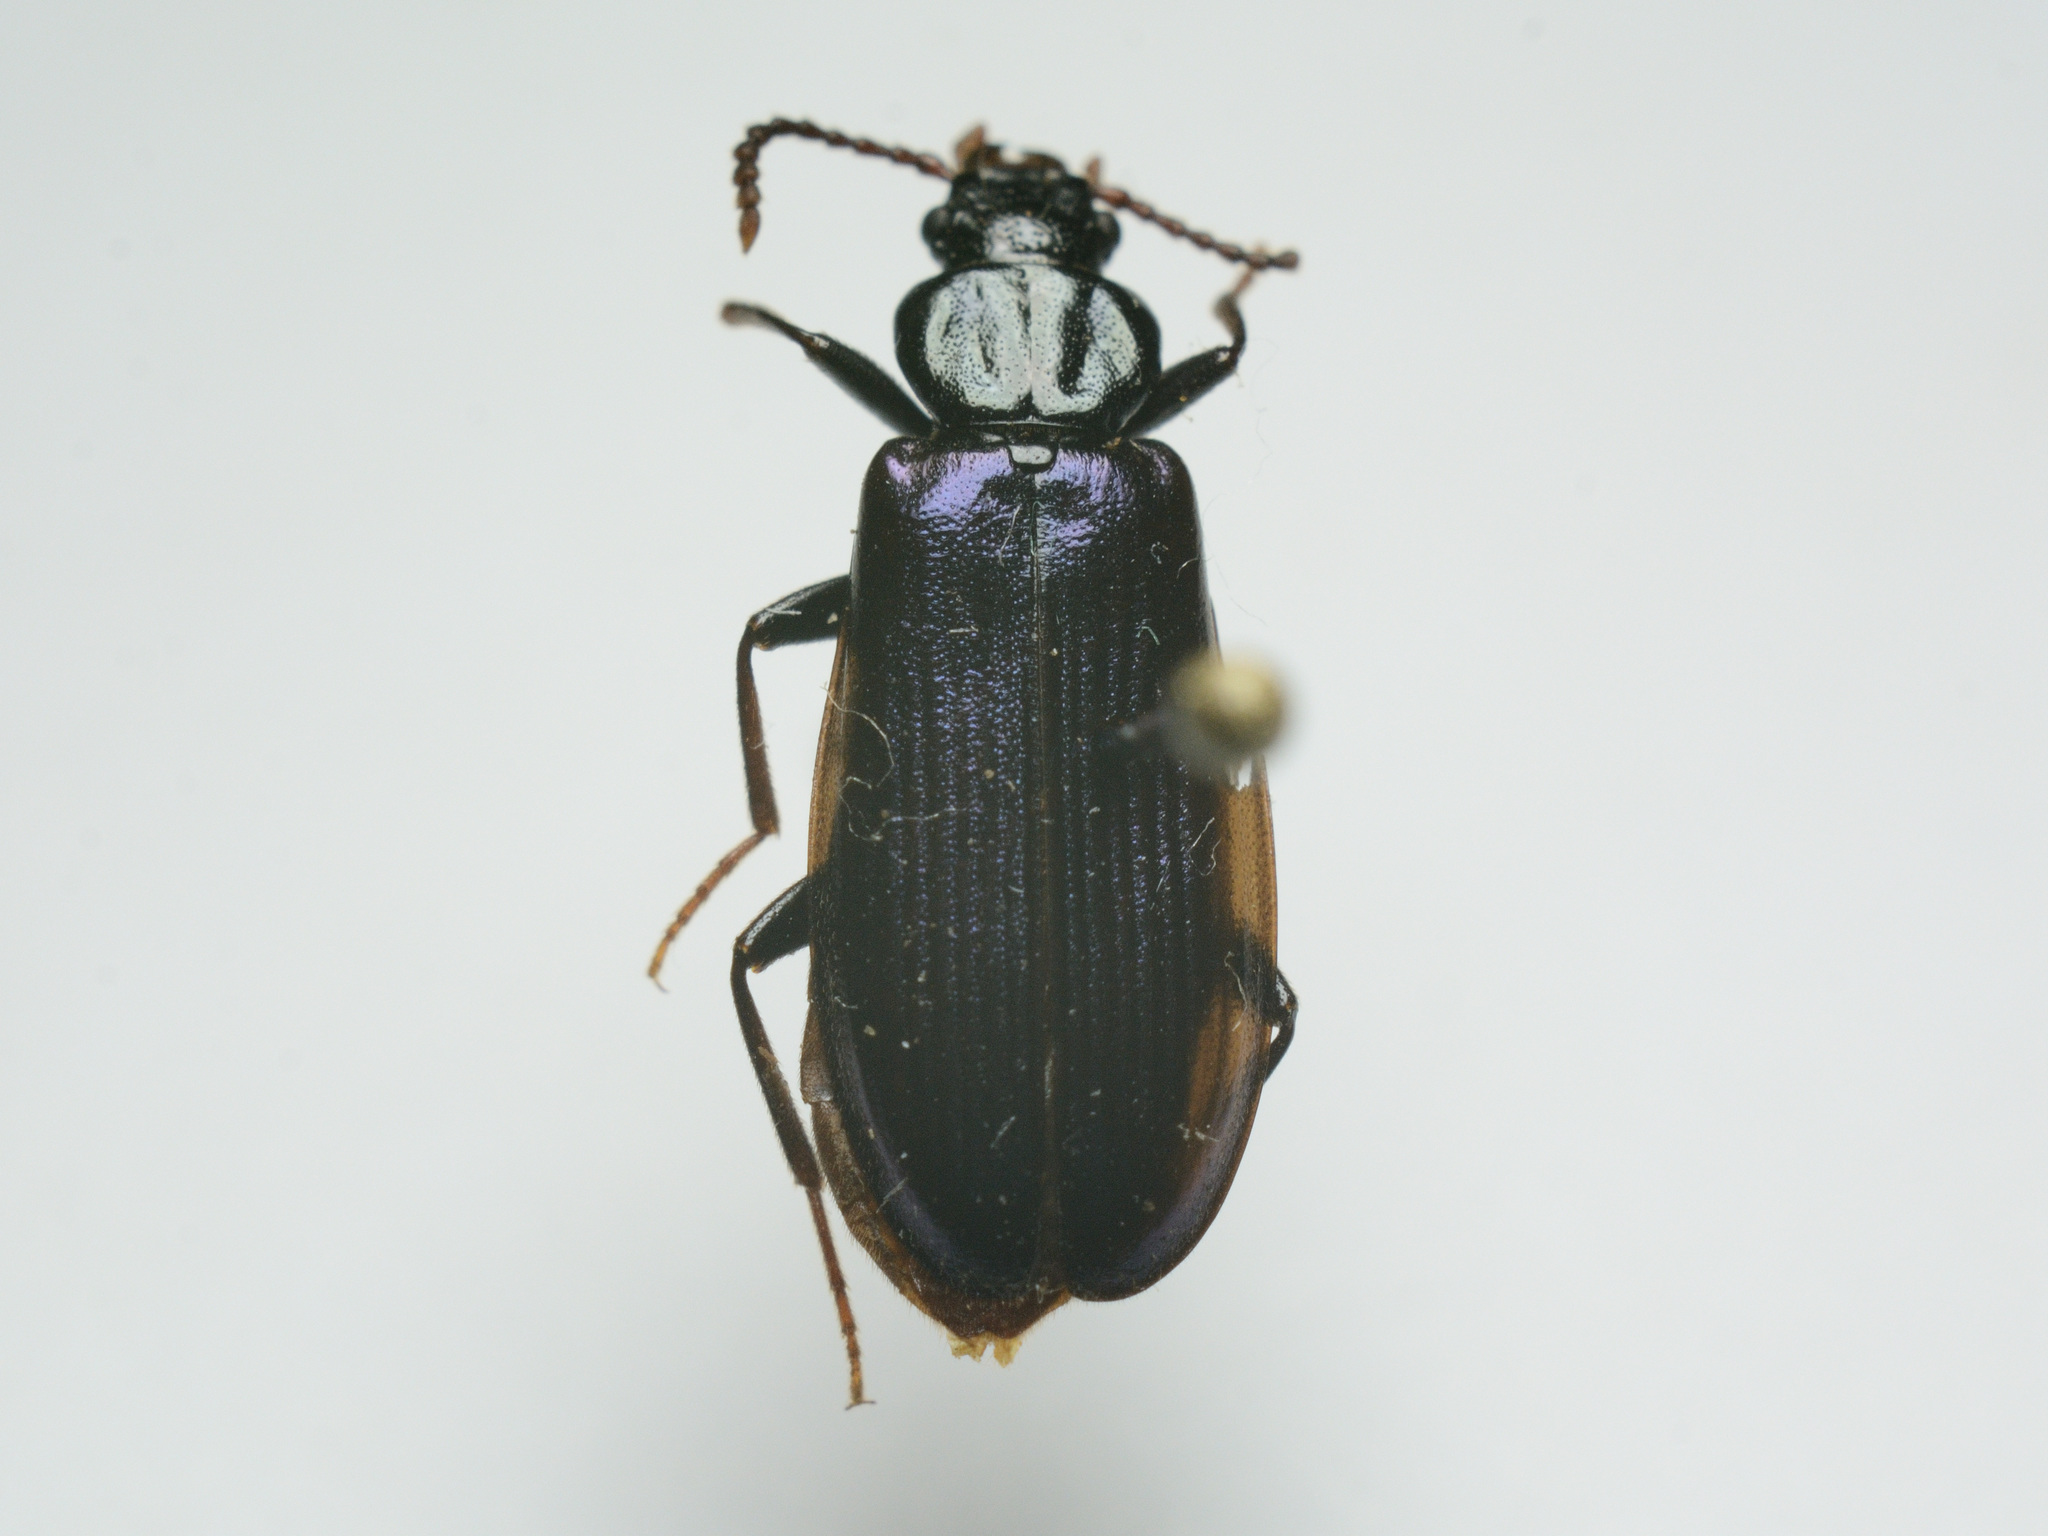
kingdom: Animalia
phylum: Arthropoda
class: Insecta
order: Coleoptera
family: Pythidae
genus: Pytho
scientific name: Pytho depressus
